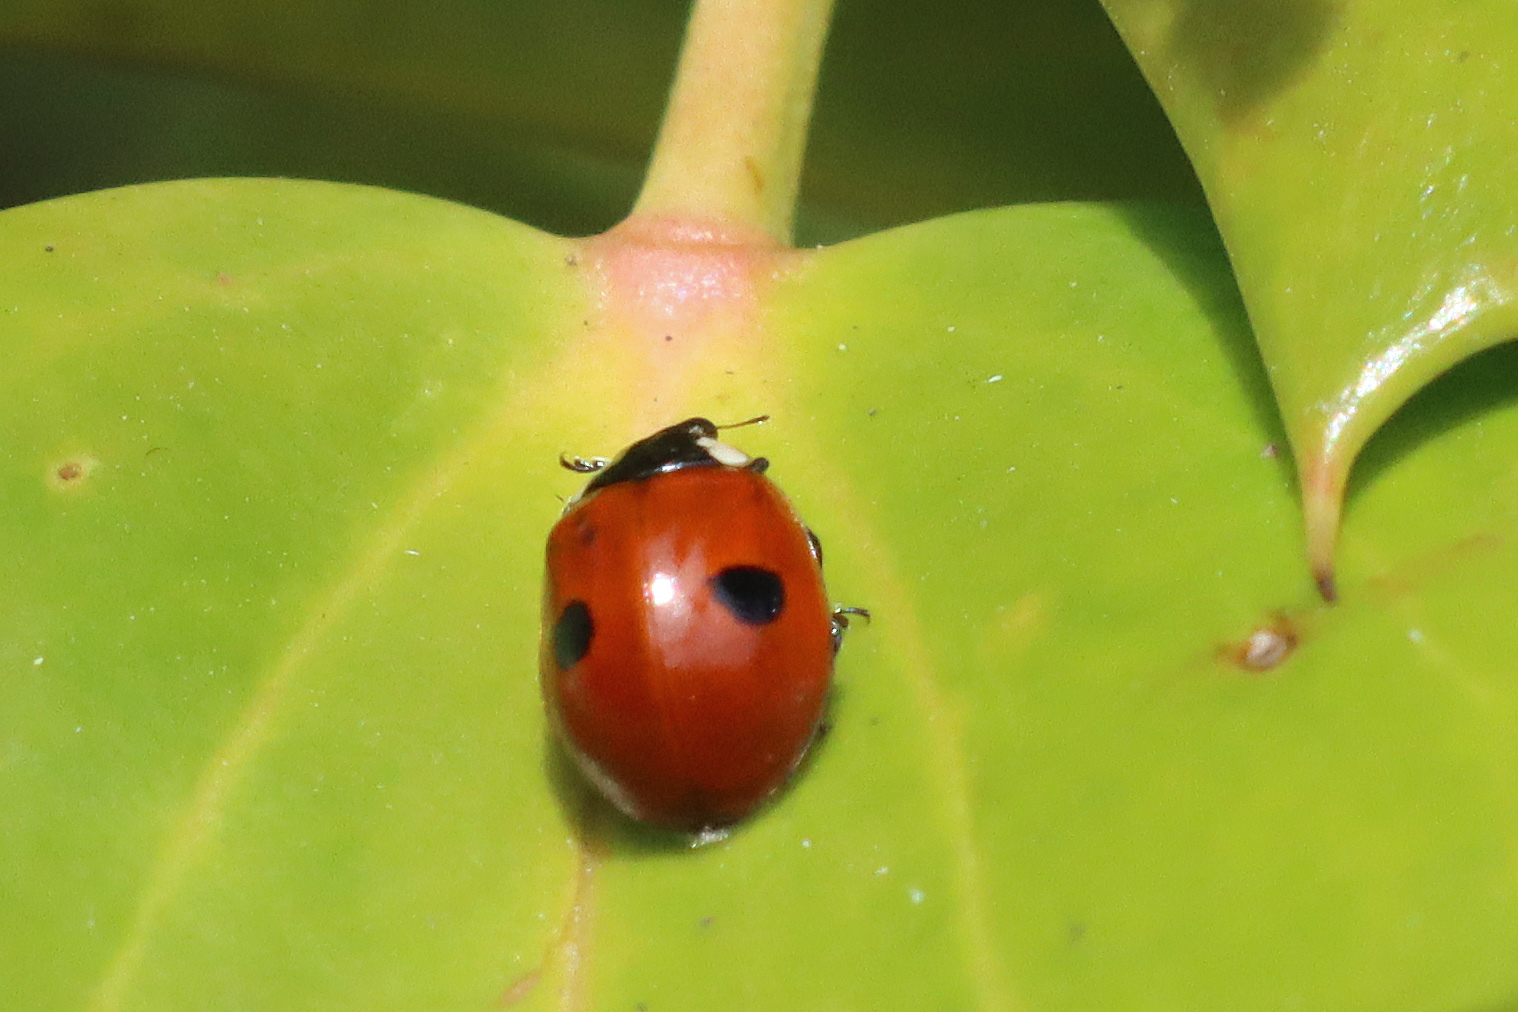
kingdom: Animalia
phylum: Arthropoda
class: Insecta
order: Coleoptera
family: Coccinellidae
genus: Adalia
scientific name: Adalia bipunctata
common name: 2-spot ladybird
